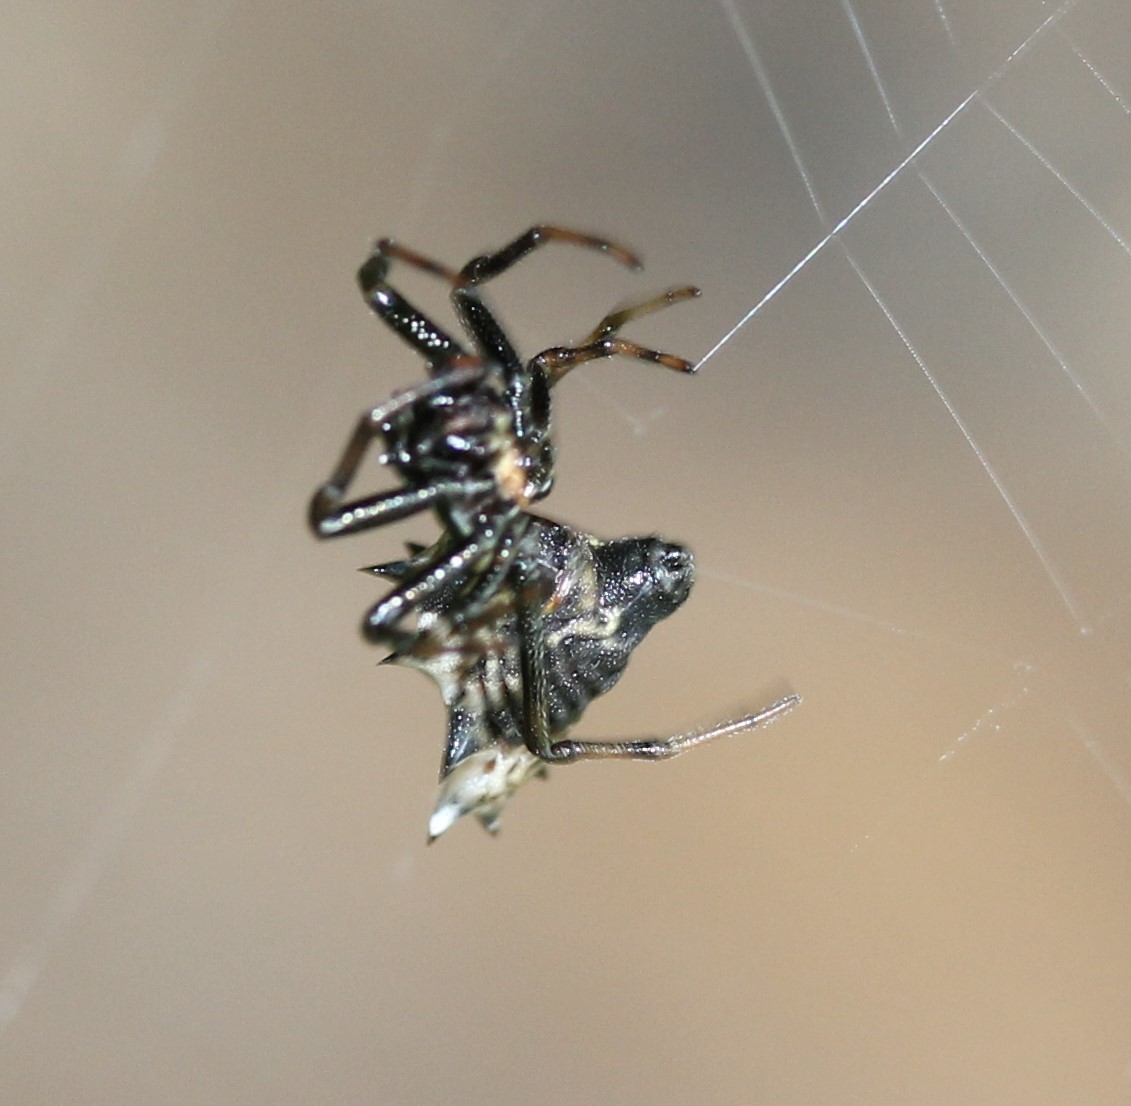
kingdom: Animalia
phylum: Arthropoda
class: Arachnida
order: Araneae
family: Araneidae
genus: Micrathena
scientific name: Micrathena gracilis
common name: Orb weavers
